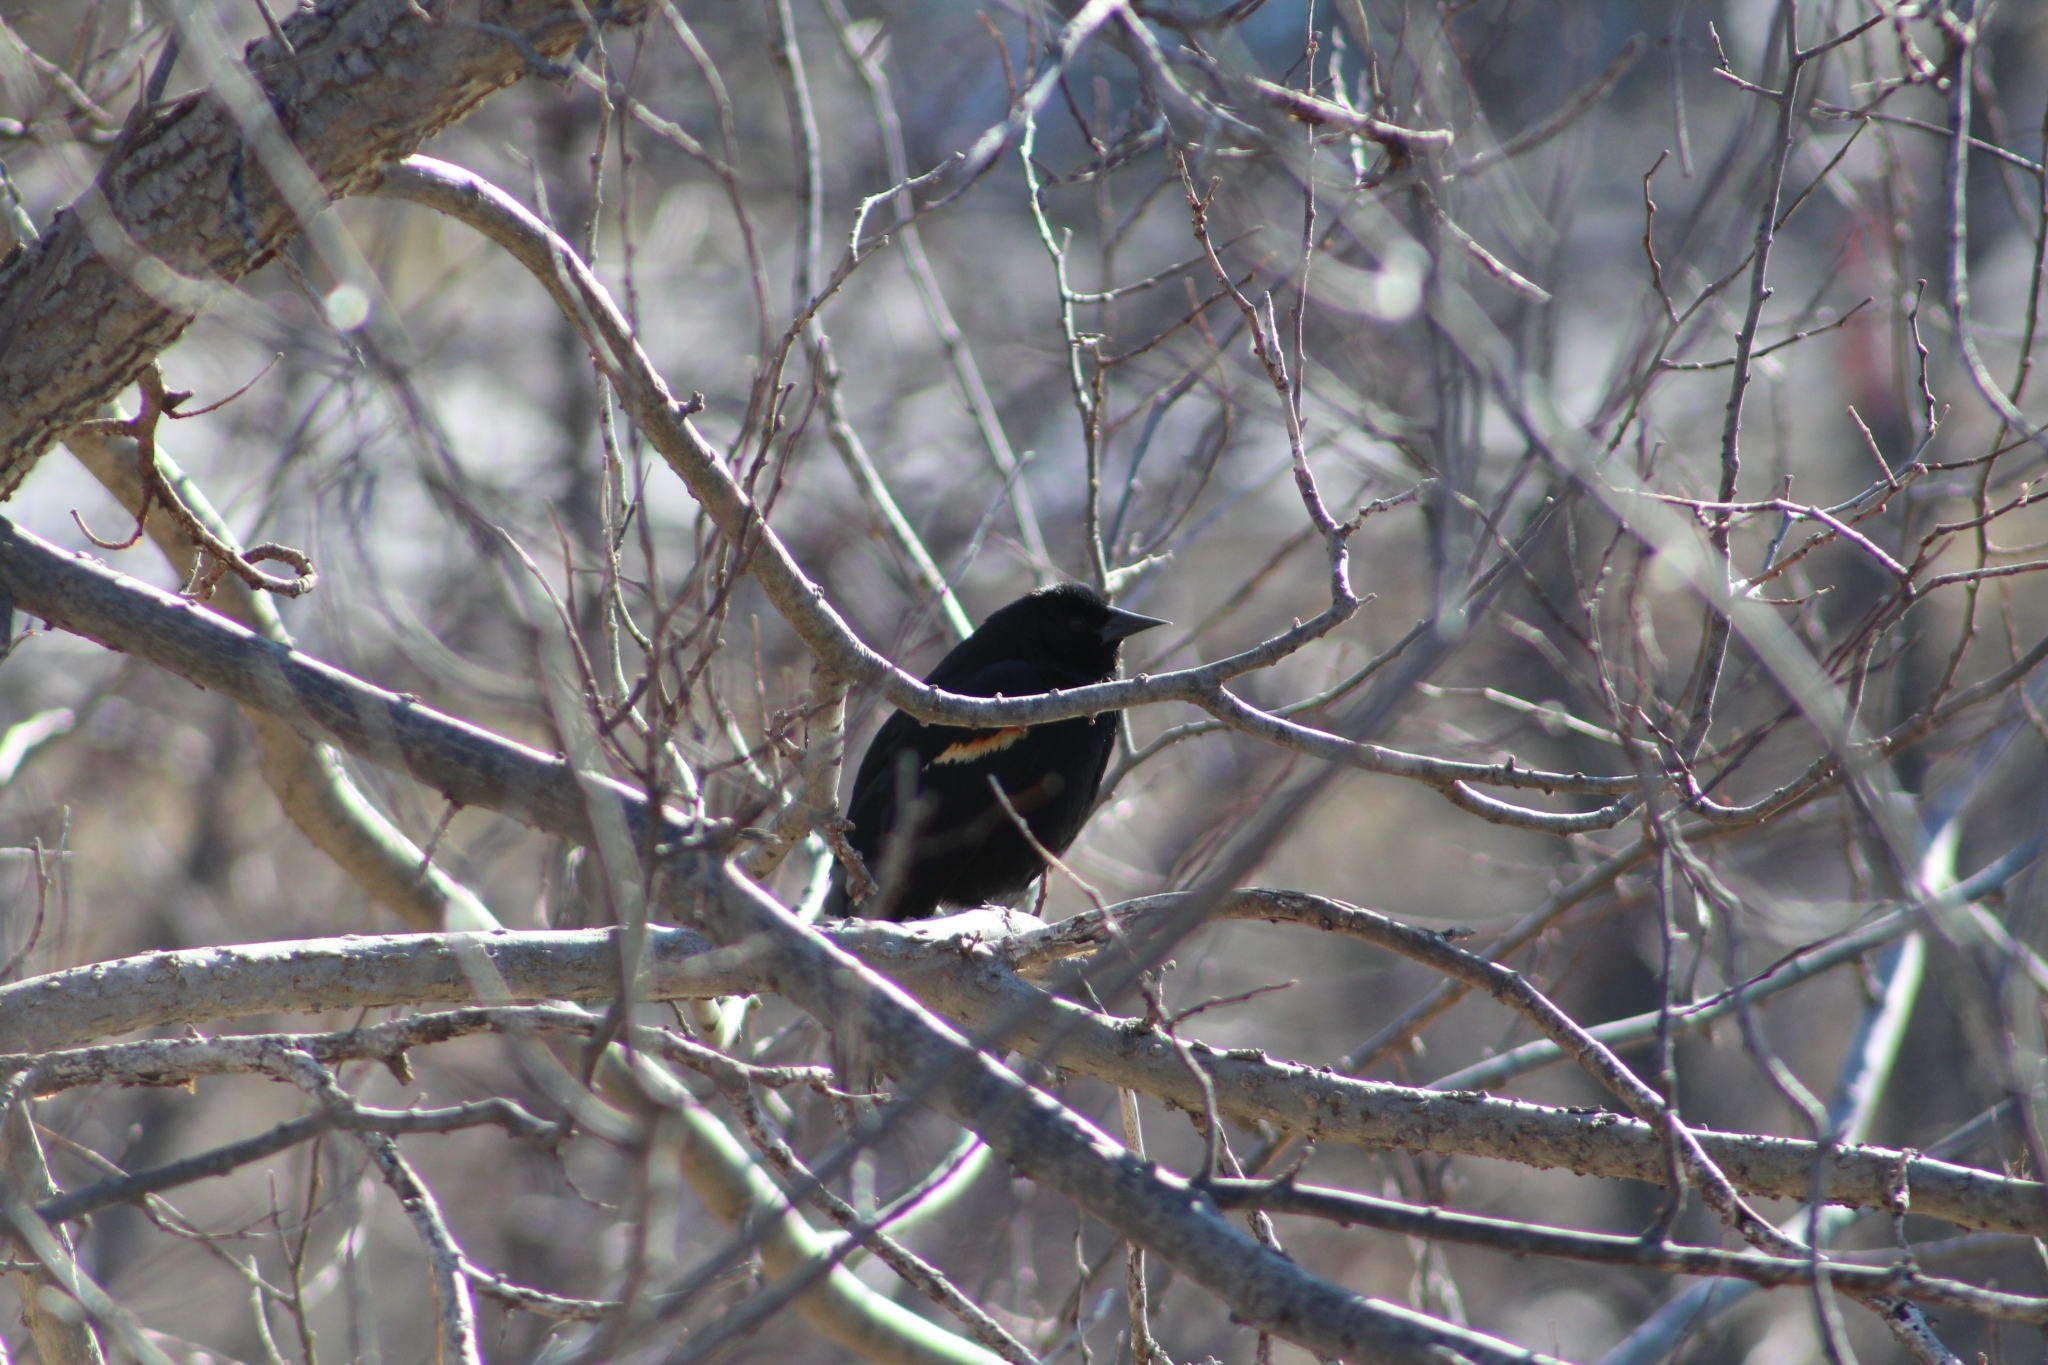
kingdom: Animalia
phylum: Chordata
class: Aves
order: Passeriformes
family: Icteridae
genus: Agelaius
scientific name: Agelaius phoeniceus
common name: Red-winged blackbird
